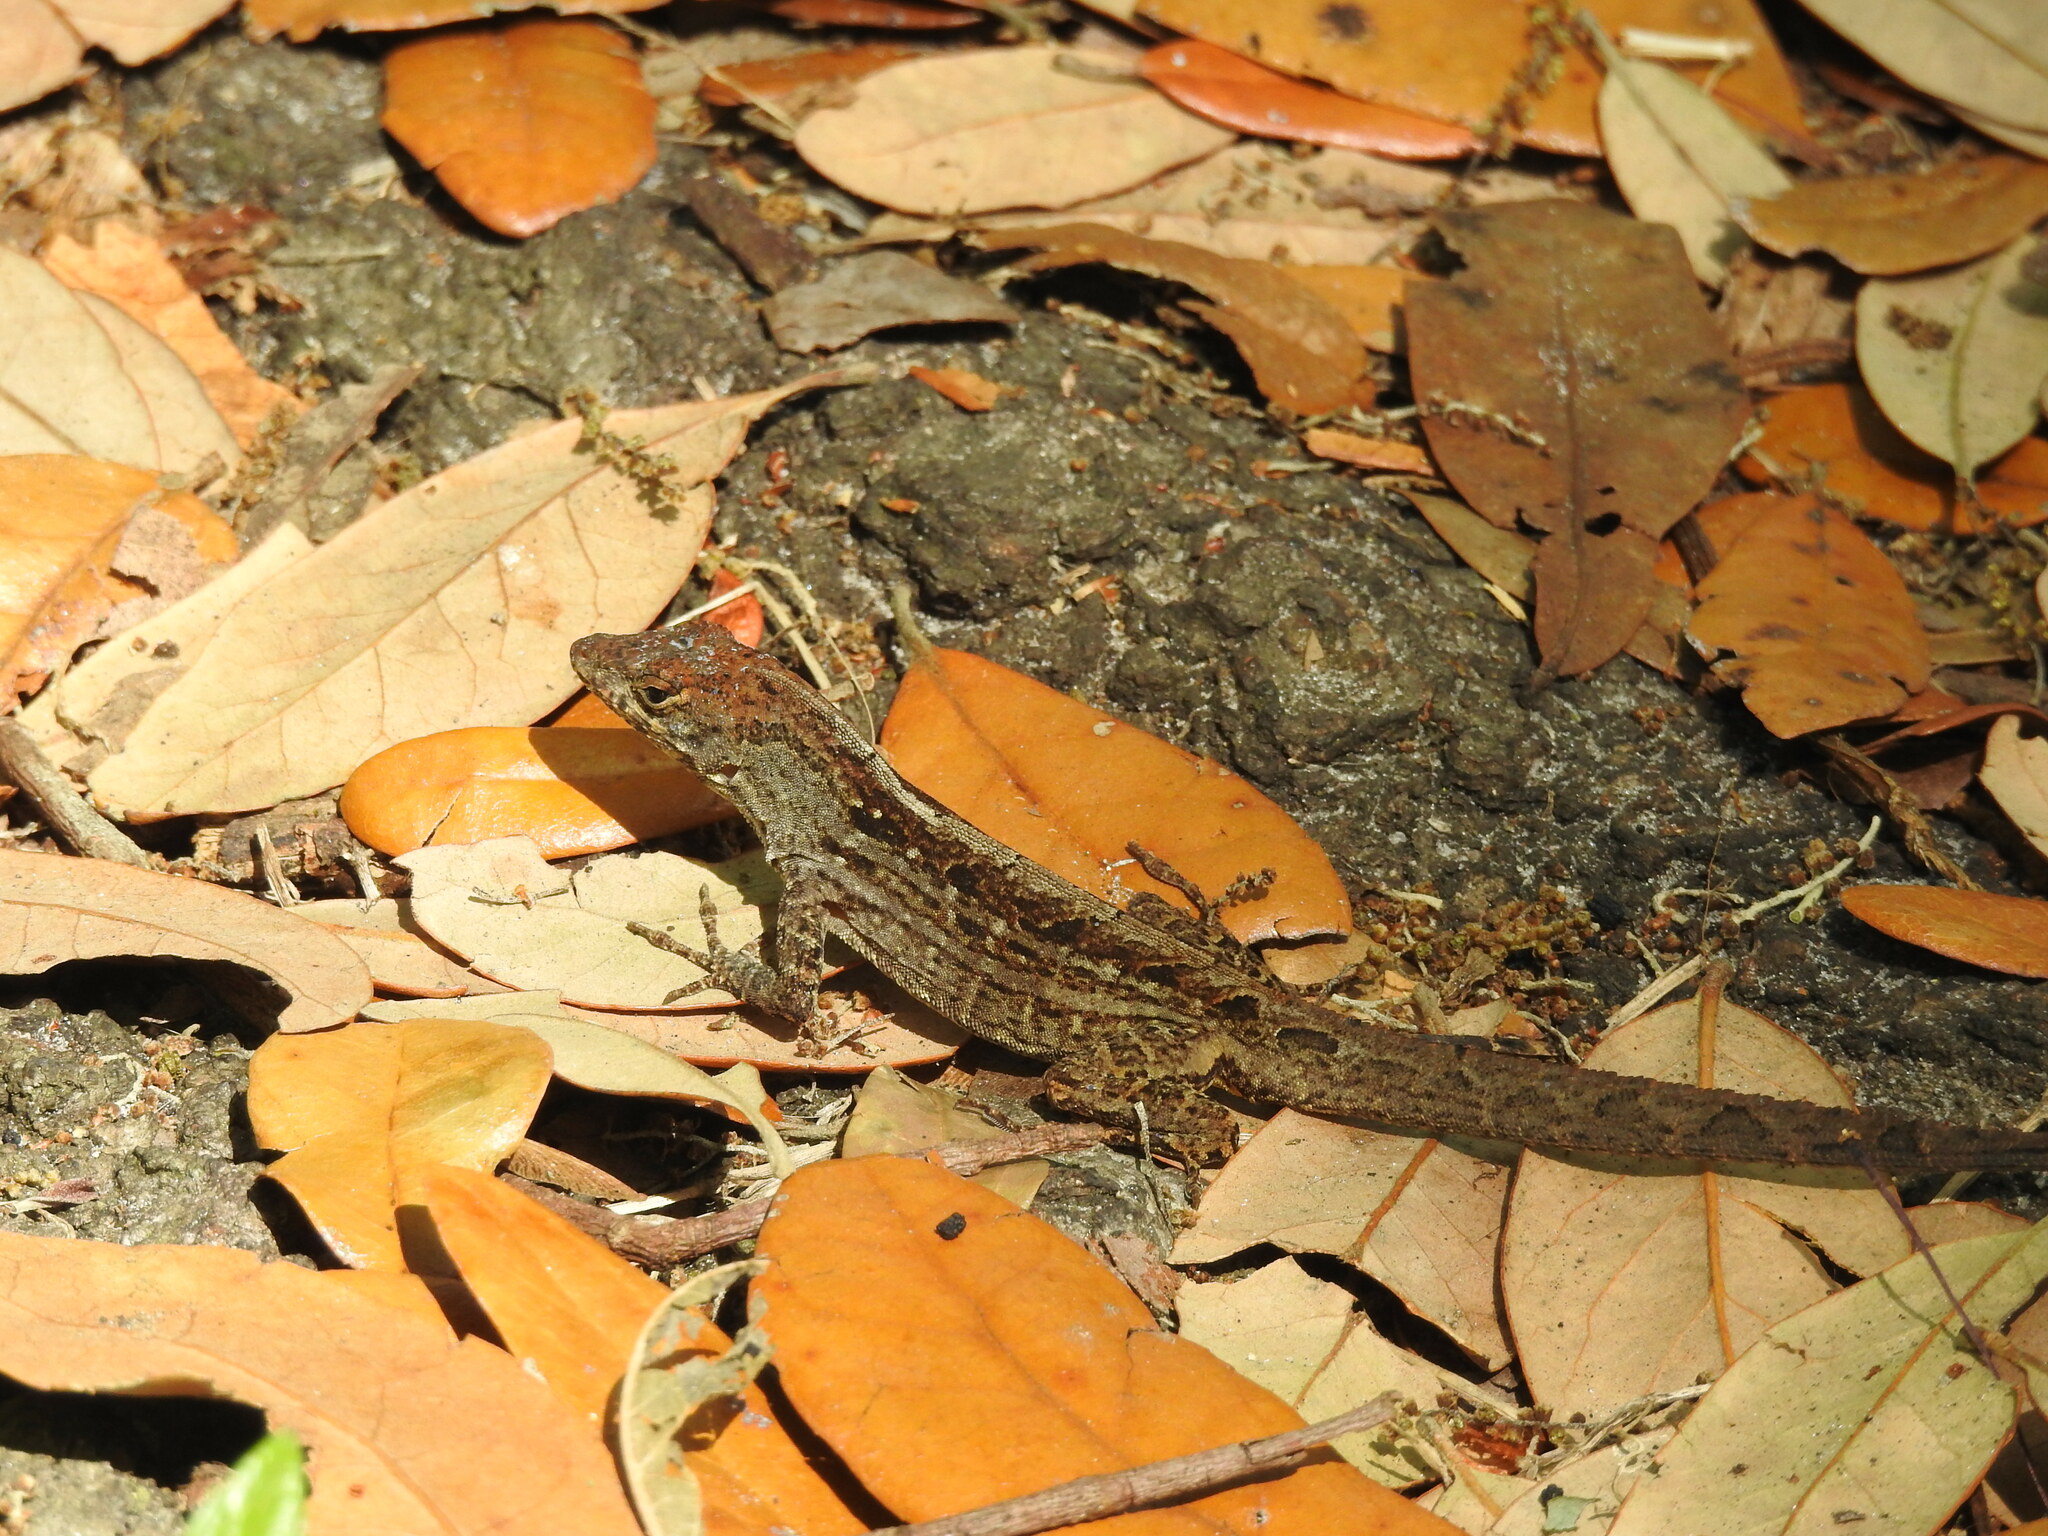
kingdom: Animalia
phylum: Chordata
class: Squamata
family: Dactyloidae
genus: Anolis
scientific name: Anolis sagrei
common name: Brown anole
